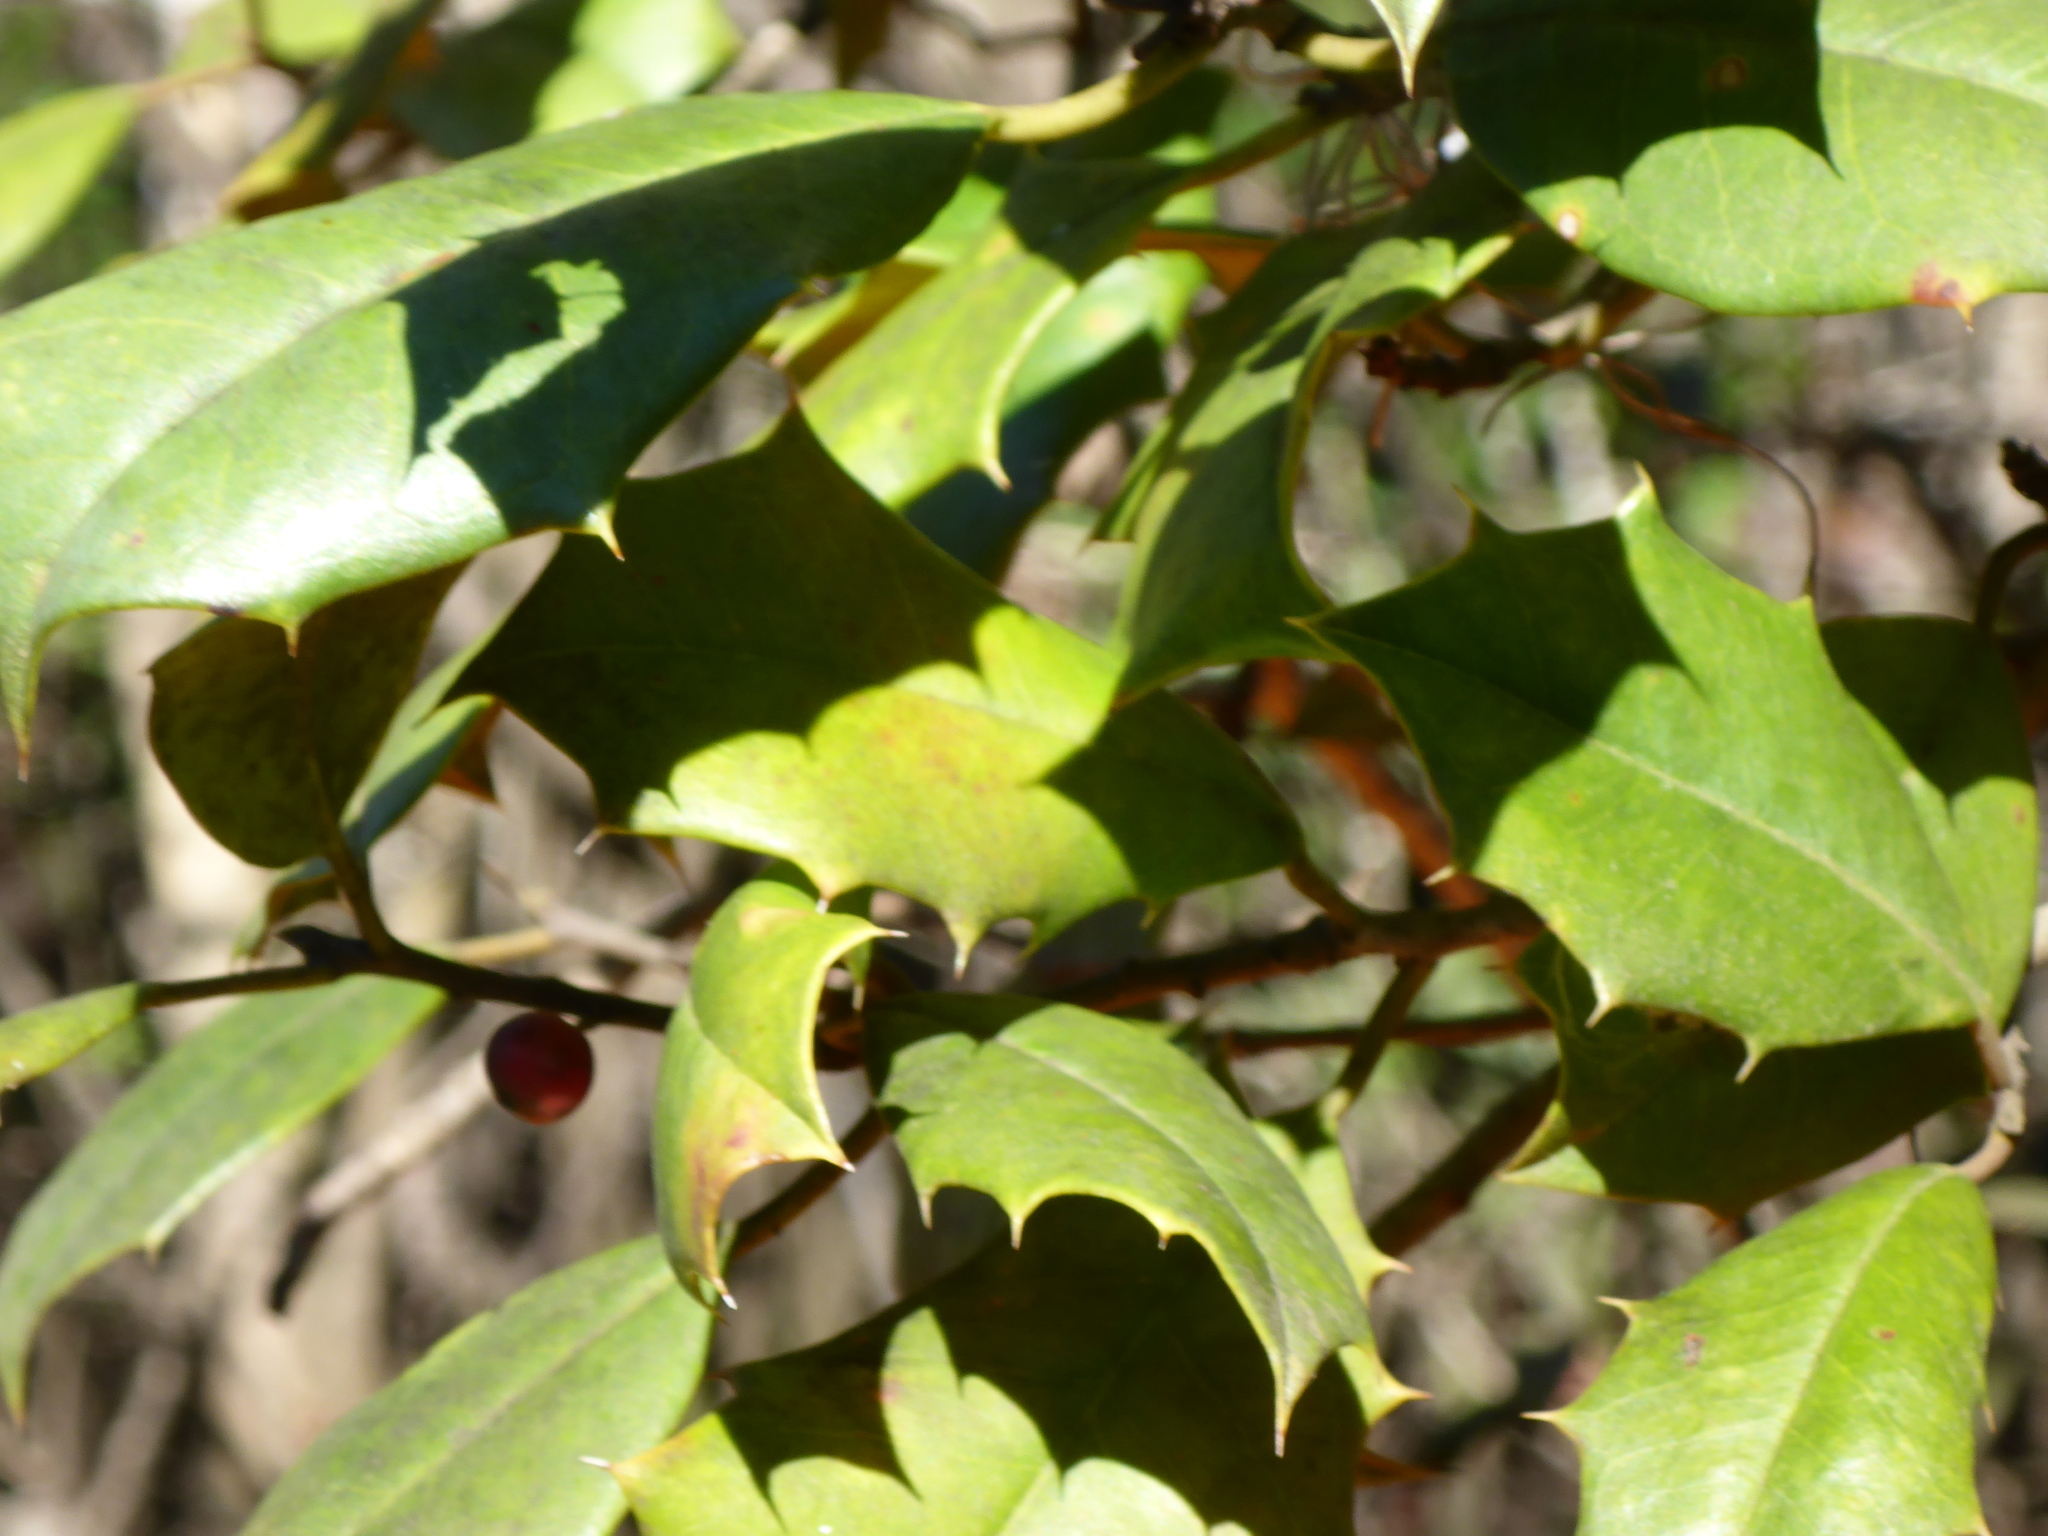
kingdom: Plantae
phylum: Tracheophyta
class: Magnoliopsida
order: Aquifoliales
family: Aquifoliaceae
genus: Ilex
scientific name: Ilex opaca
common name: American holly
